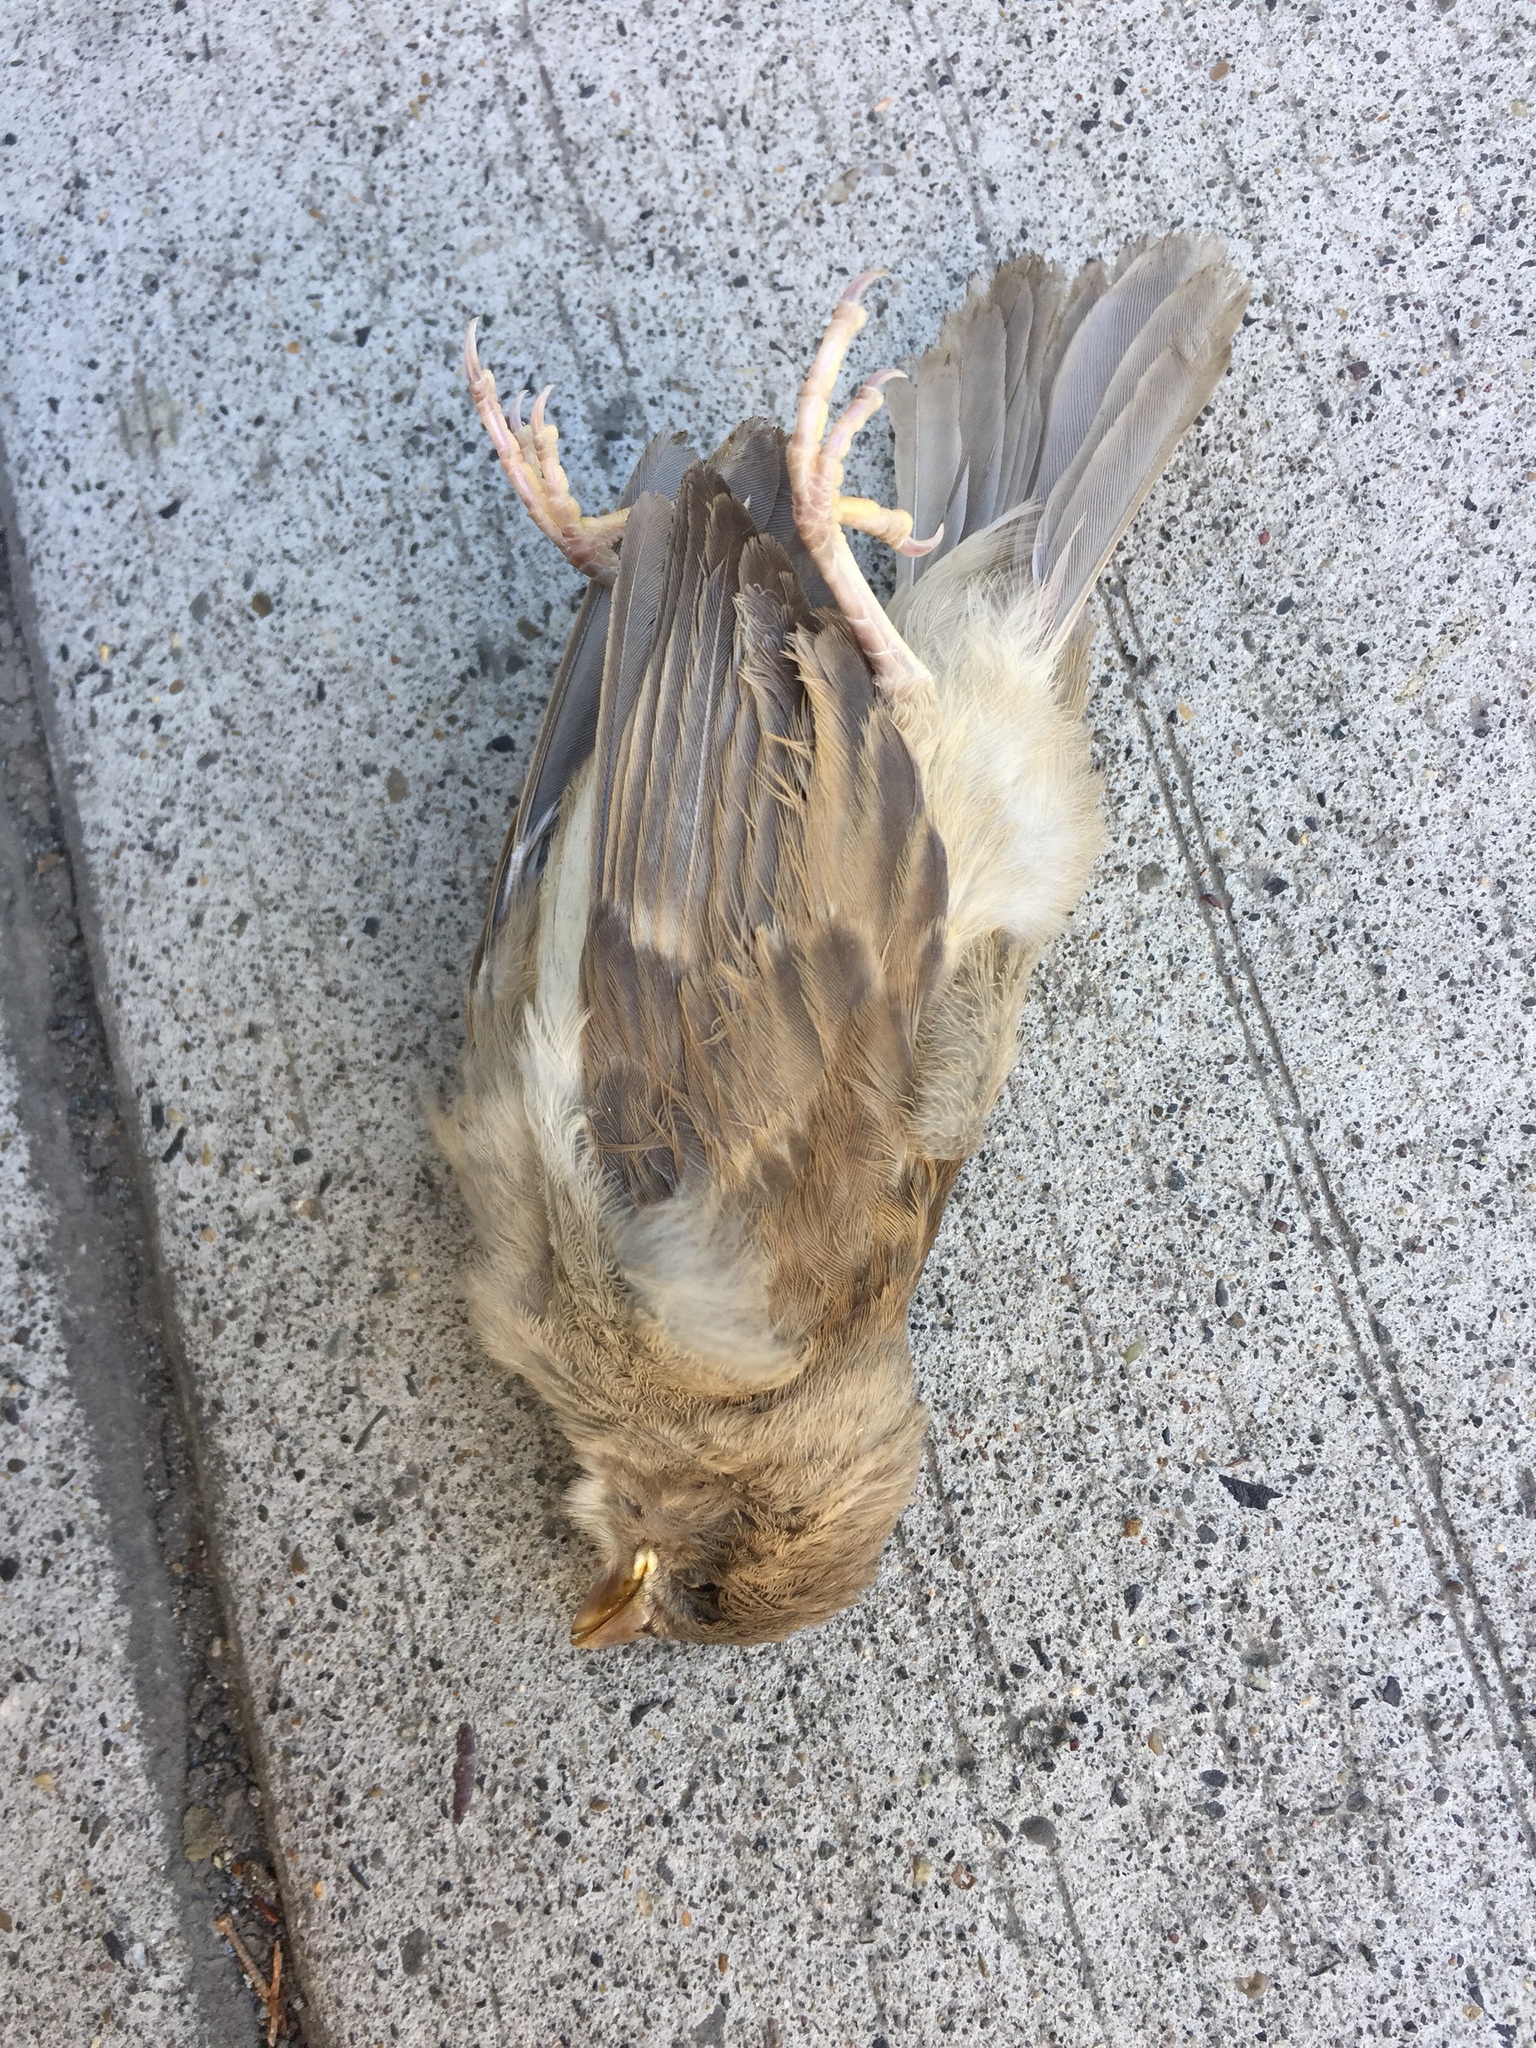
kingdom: Animalia
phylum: Chordata
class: Aves
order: Passeriformes
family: Passeridae
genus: Passer
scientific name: Passer domesticus
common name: House sparrow
